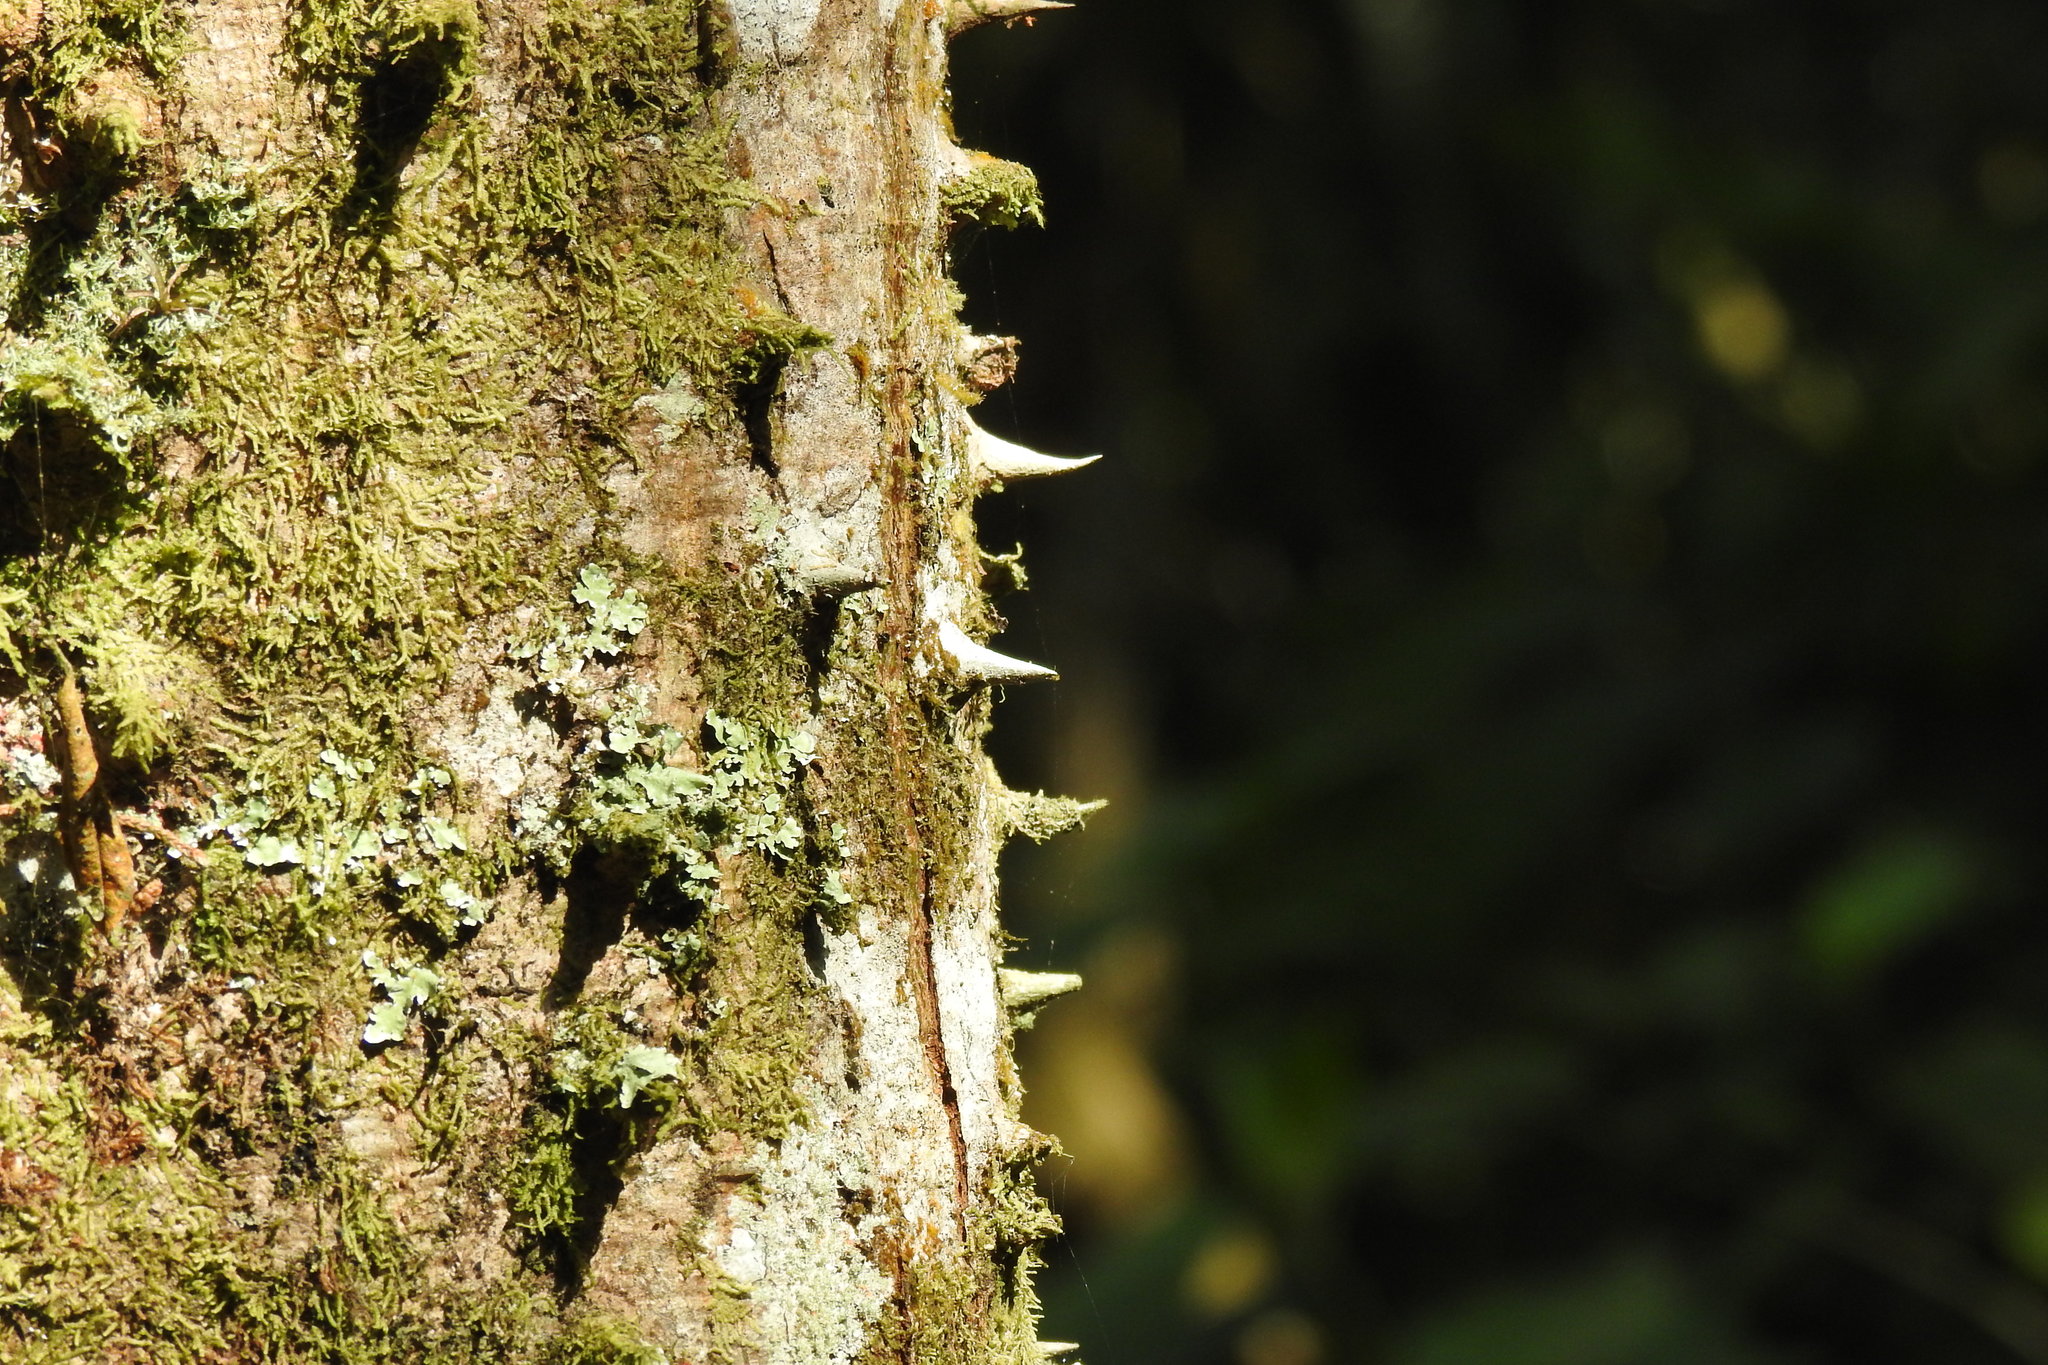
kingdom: Plantae
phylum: Tracheophyta
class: Magnoliopsida
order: Malpighiales
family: Euphorbiaceae
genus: Hura
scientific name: Hura crepitans
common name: Sandboxtree
